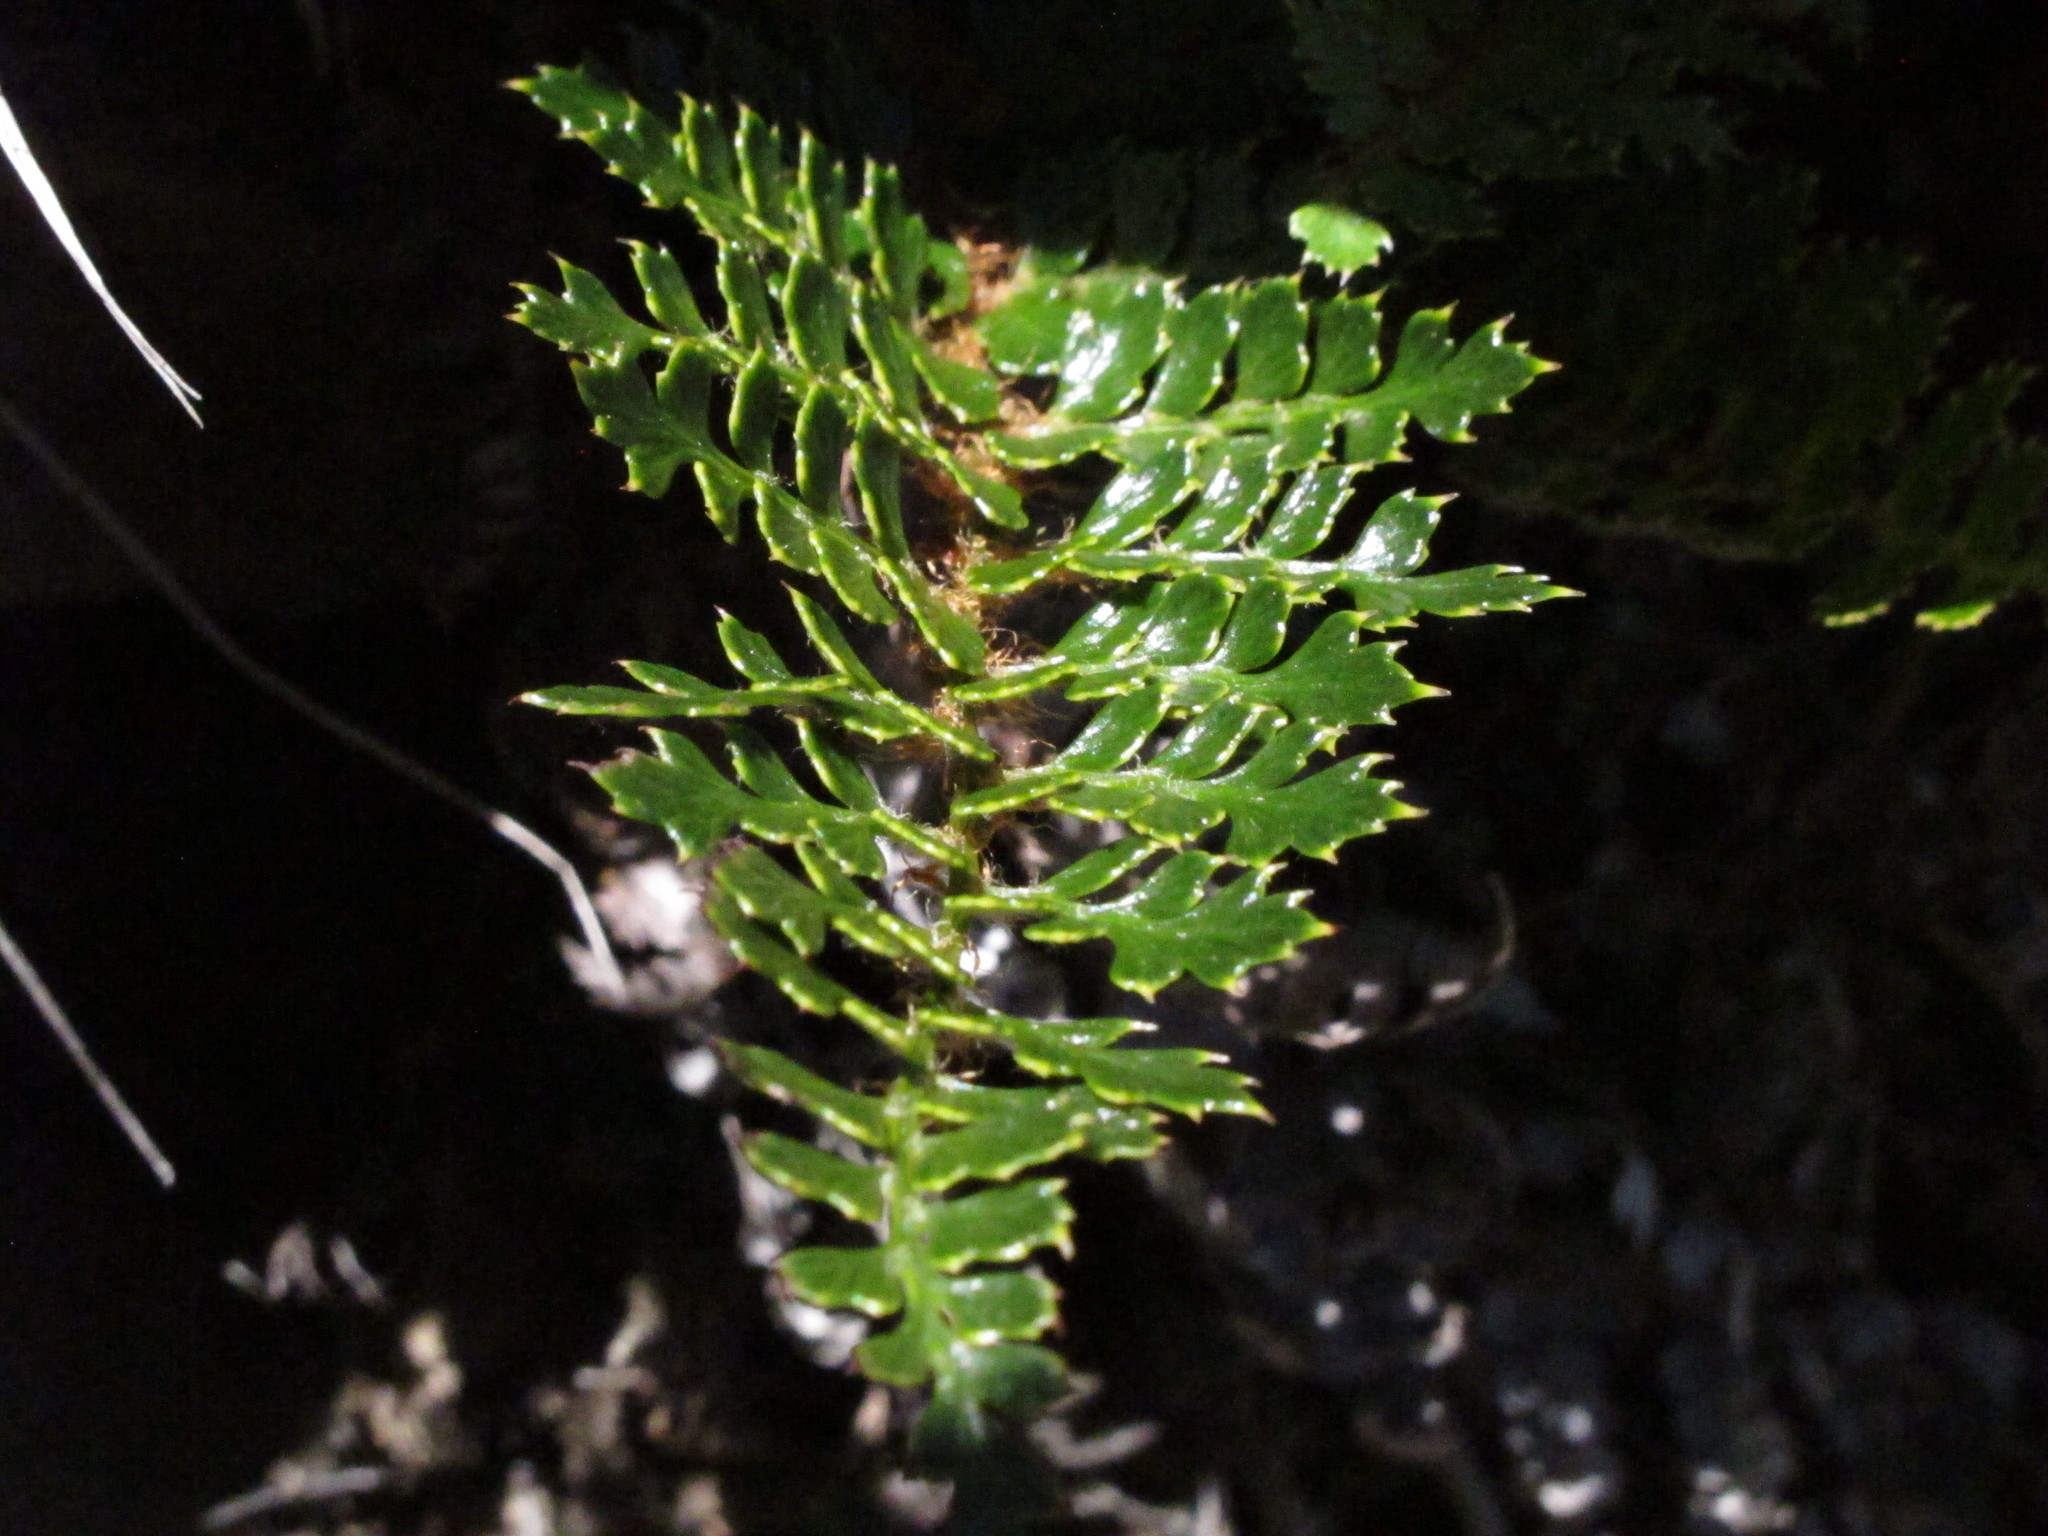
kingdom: Plantae
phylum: Tracheophyta
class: Polypodiopsida
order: Polypodiales
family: Dryopteridaceae
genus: Polystichum
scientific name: Polystichum vestitum
